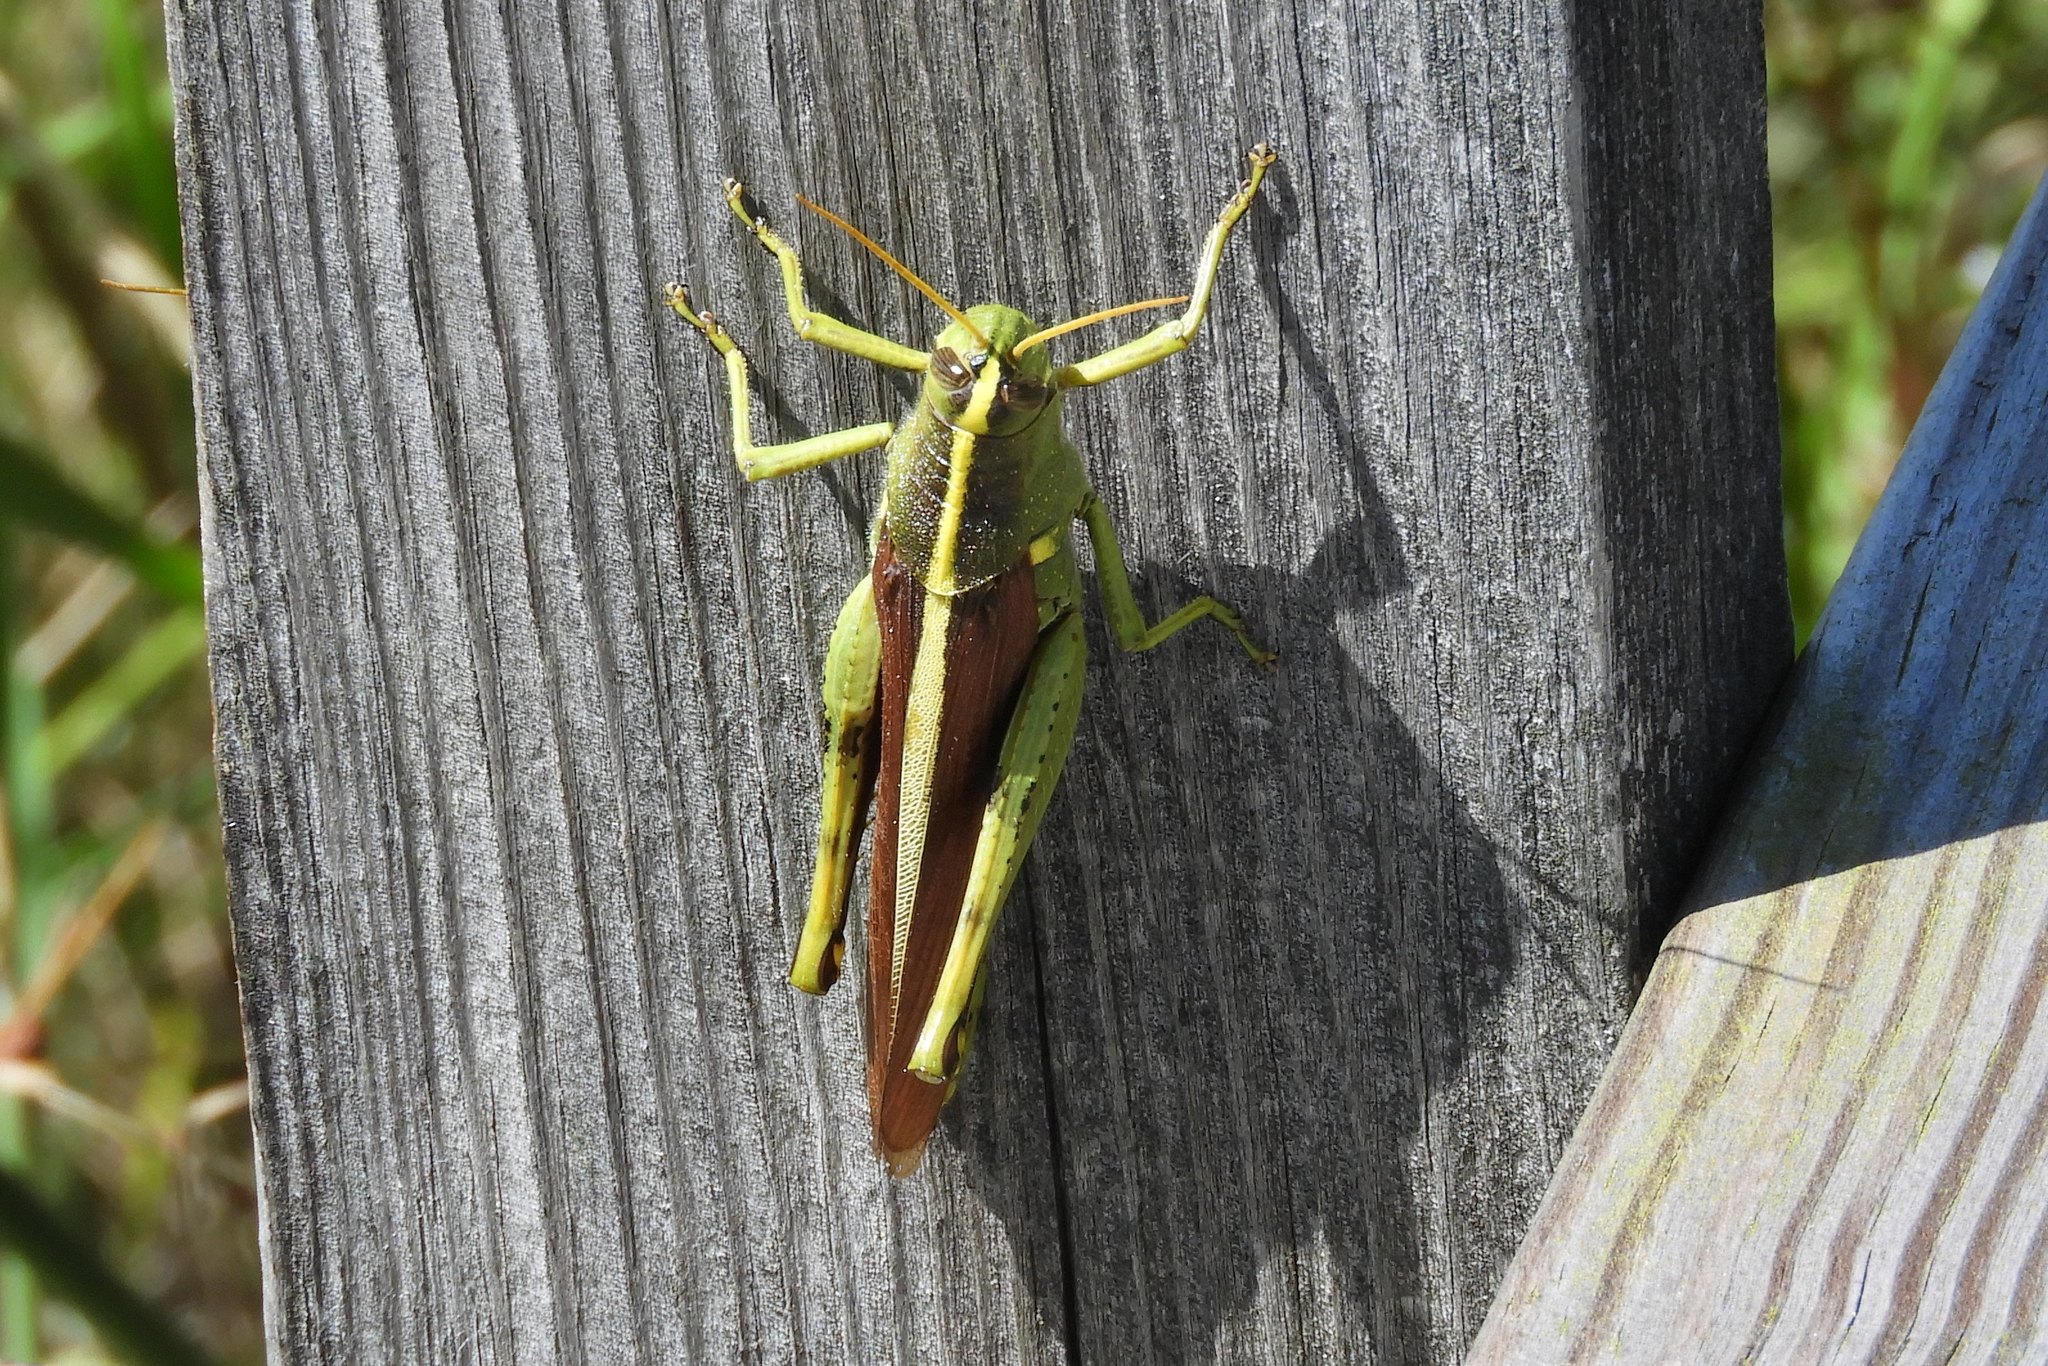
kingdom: Animalia
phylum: Arthropoda
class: Insecta
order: Orthoptera
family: Acrididae
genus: Schistocerca
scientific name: Schistocerca obscura
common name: Obscure bird grasshopper
